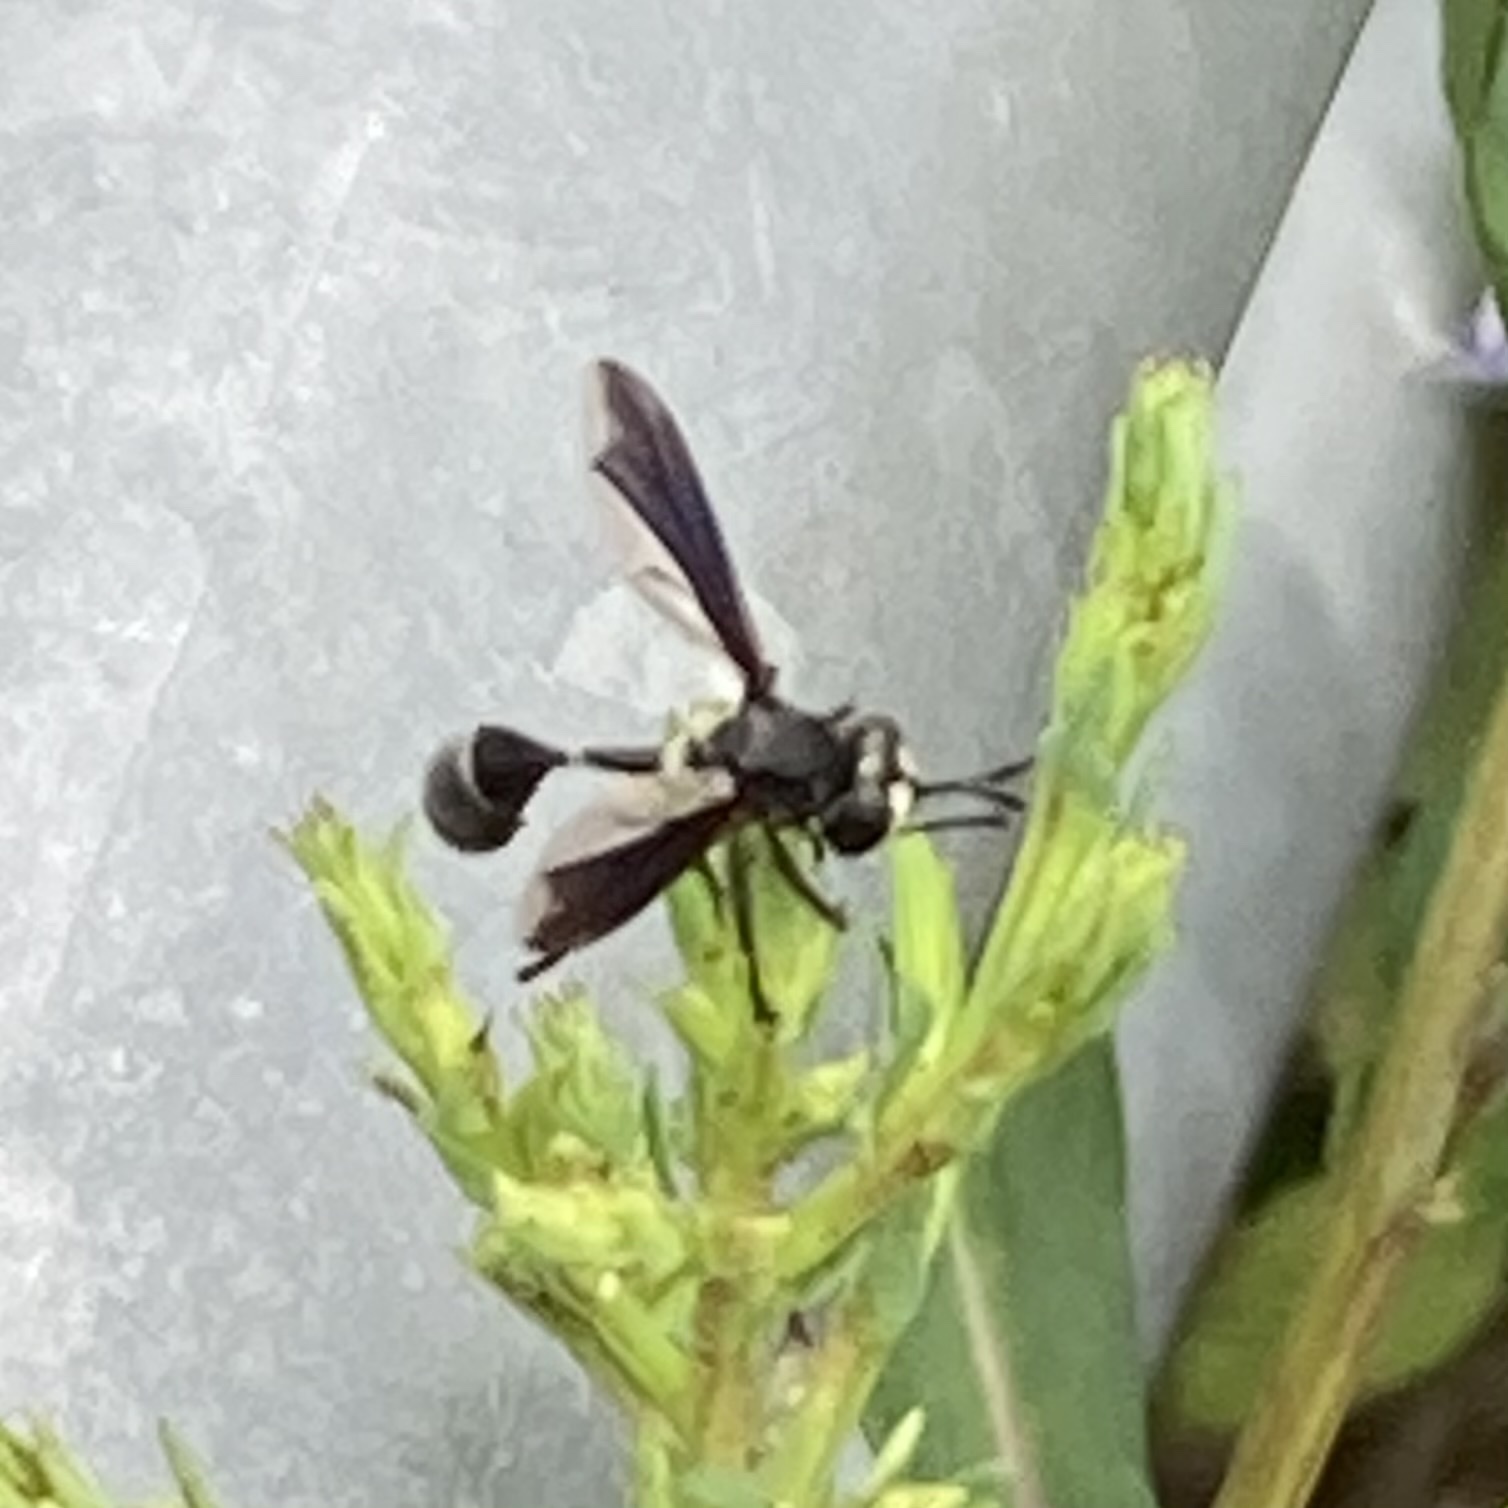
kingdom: Animalia
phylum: Arthropoda
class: Insecta
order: Diptera
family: Conopidae
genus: Physocephala
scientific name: Physocephala tibialis
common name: Common eastern physocephala
